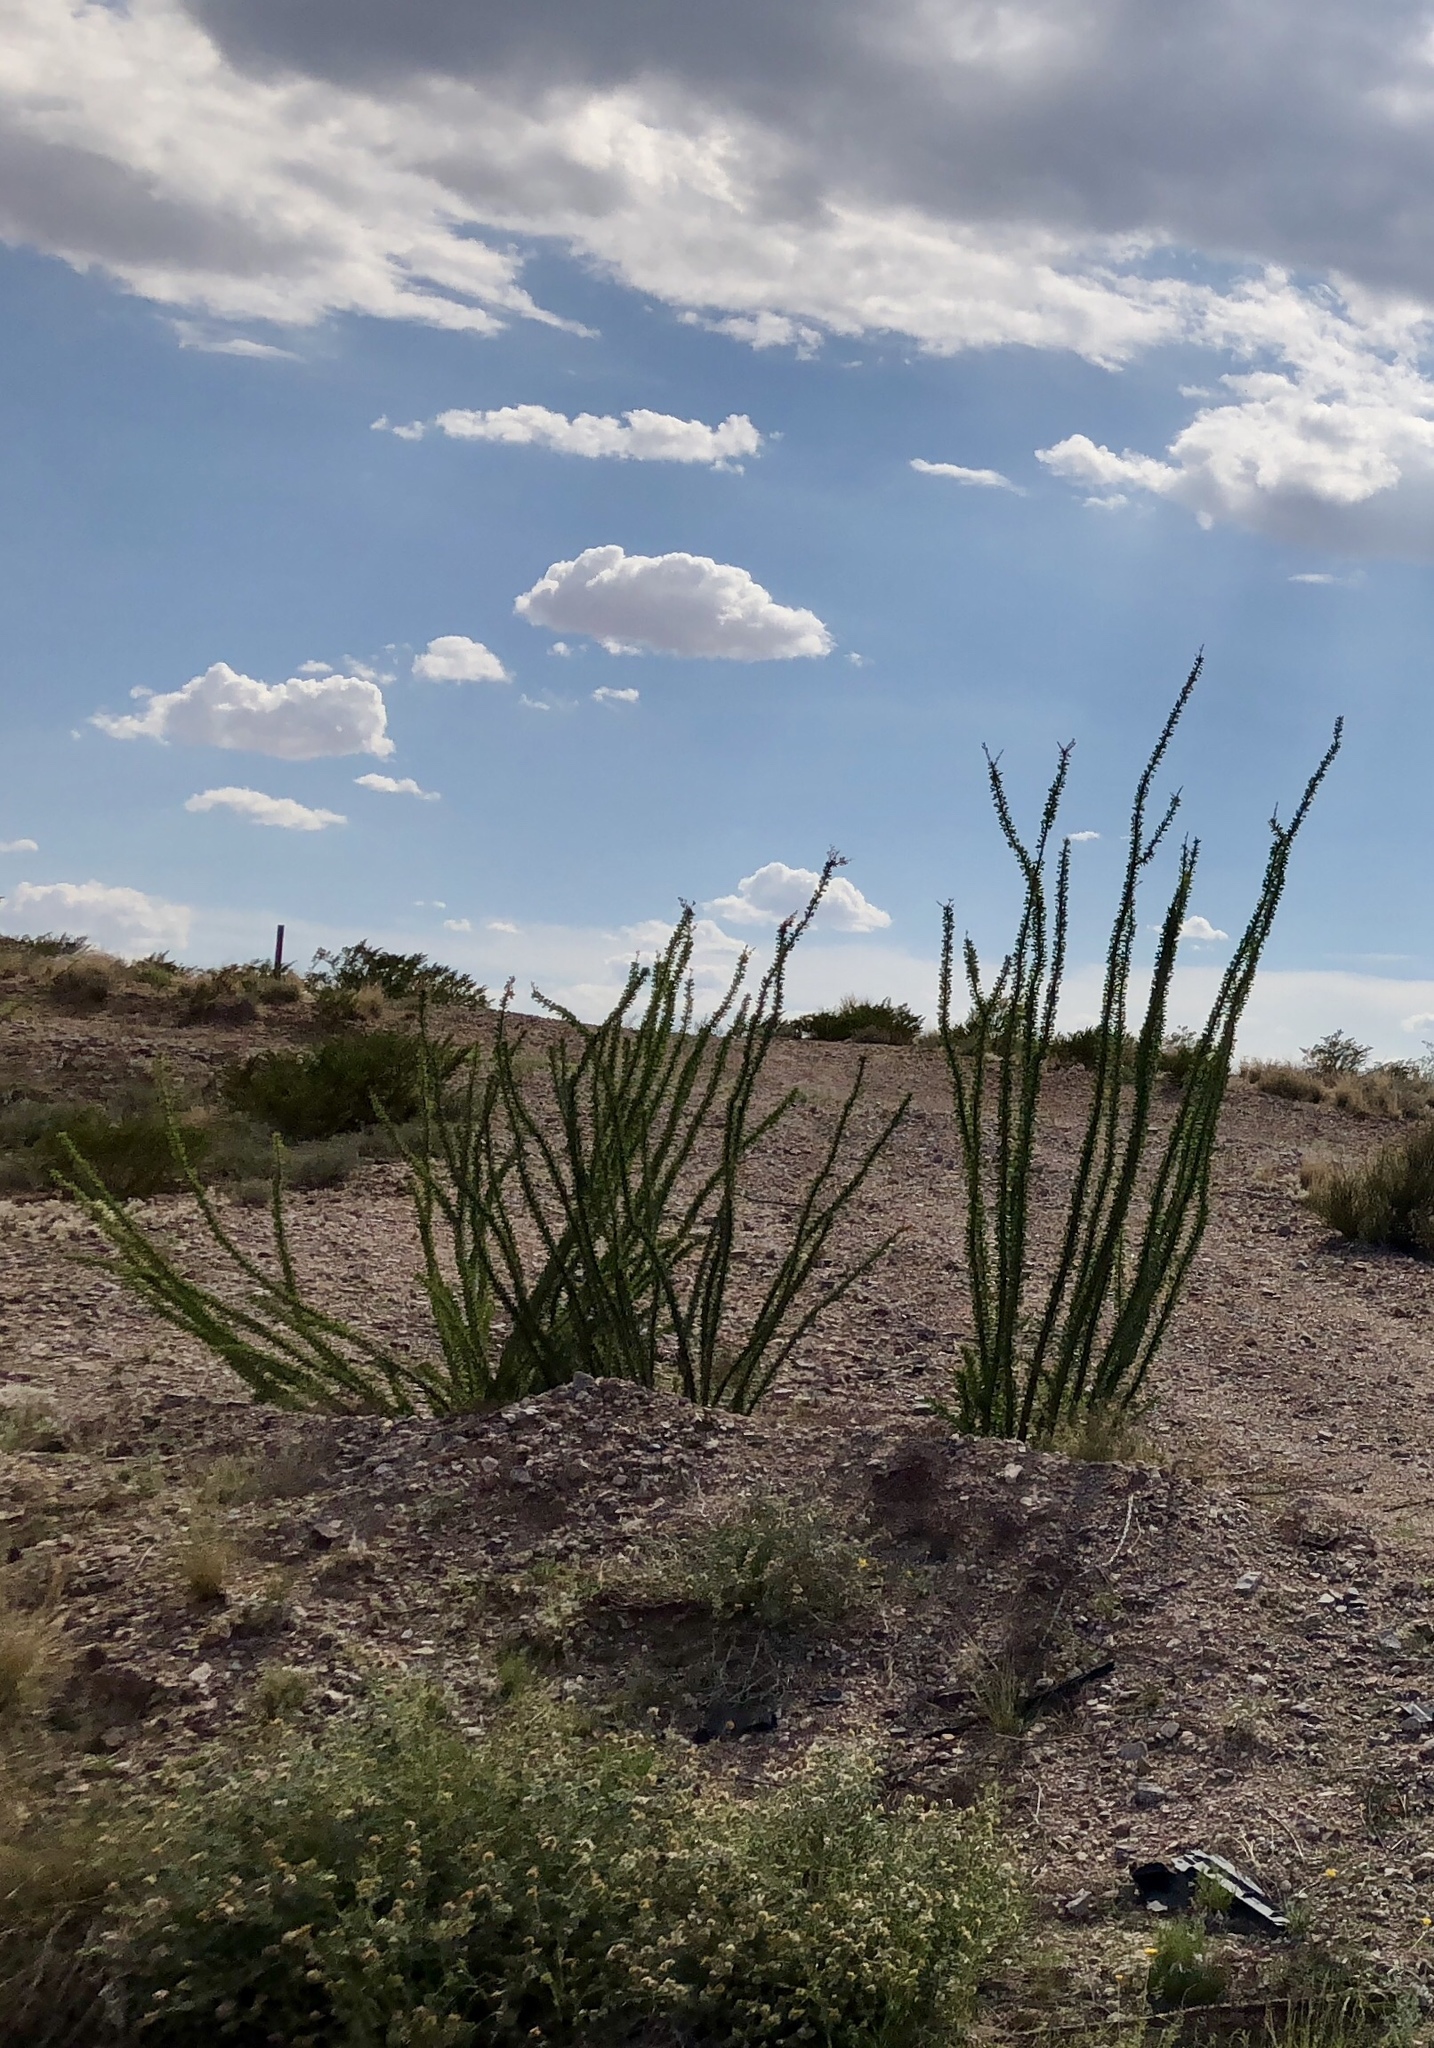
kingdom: Plantae
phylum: Tracheophyta
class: Magnoliopsida
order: Ericales
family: Fouquieriaceae
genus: Fouquieria
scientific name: Fouquieria splendens
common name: Vine-cactus
